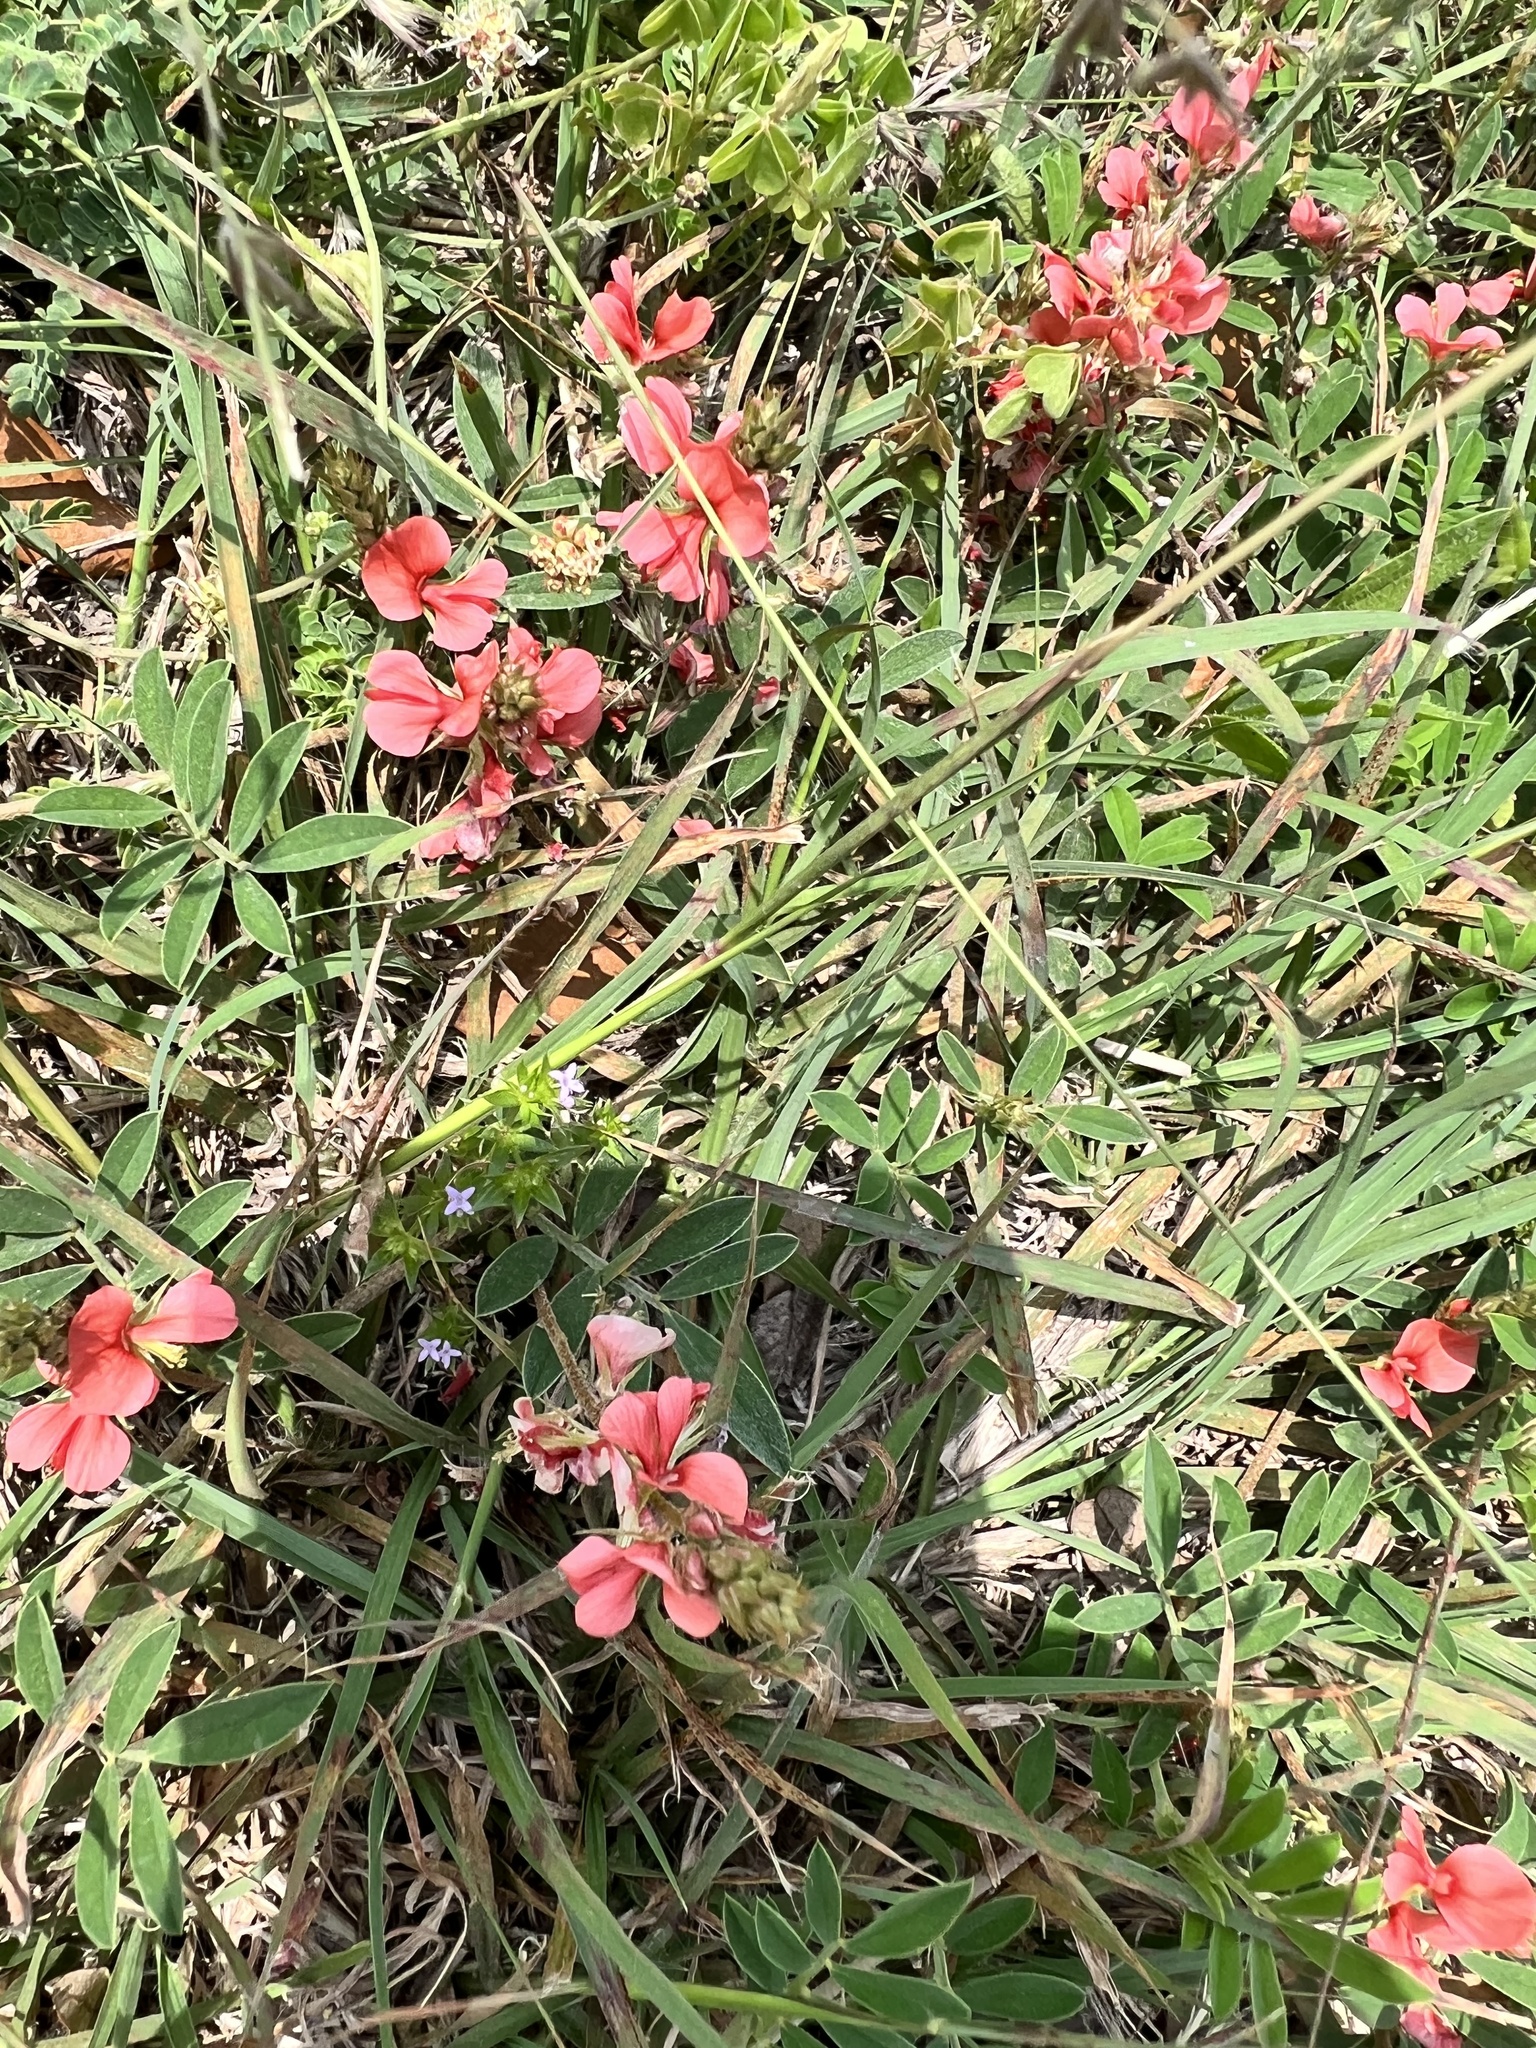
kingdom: Plantae
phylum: Tracheophyta
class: Magnoliopsida
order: Fabales
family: Fabaceae
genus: Indigofera
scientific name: Indigofera miniata
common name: Coast indigo
